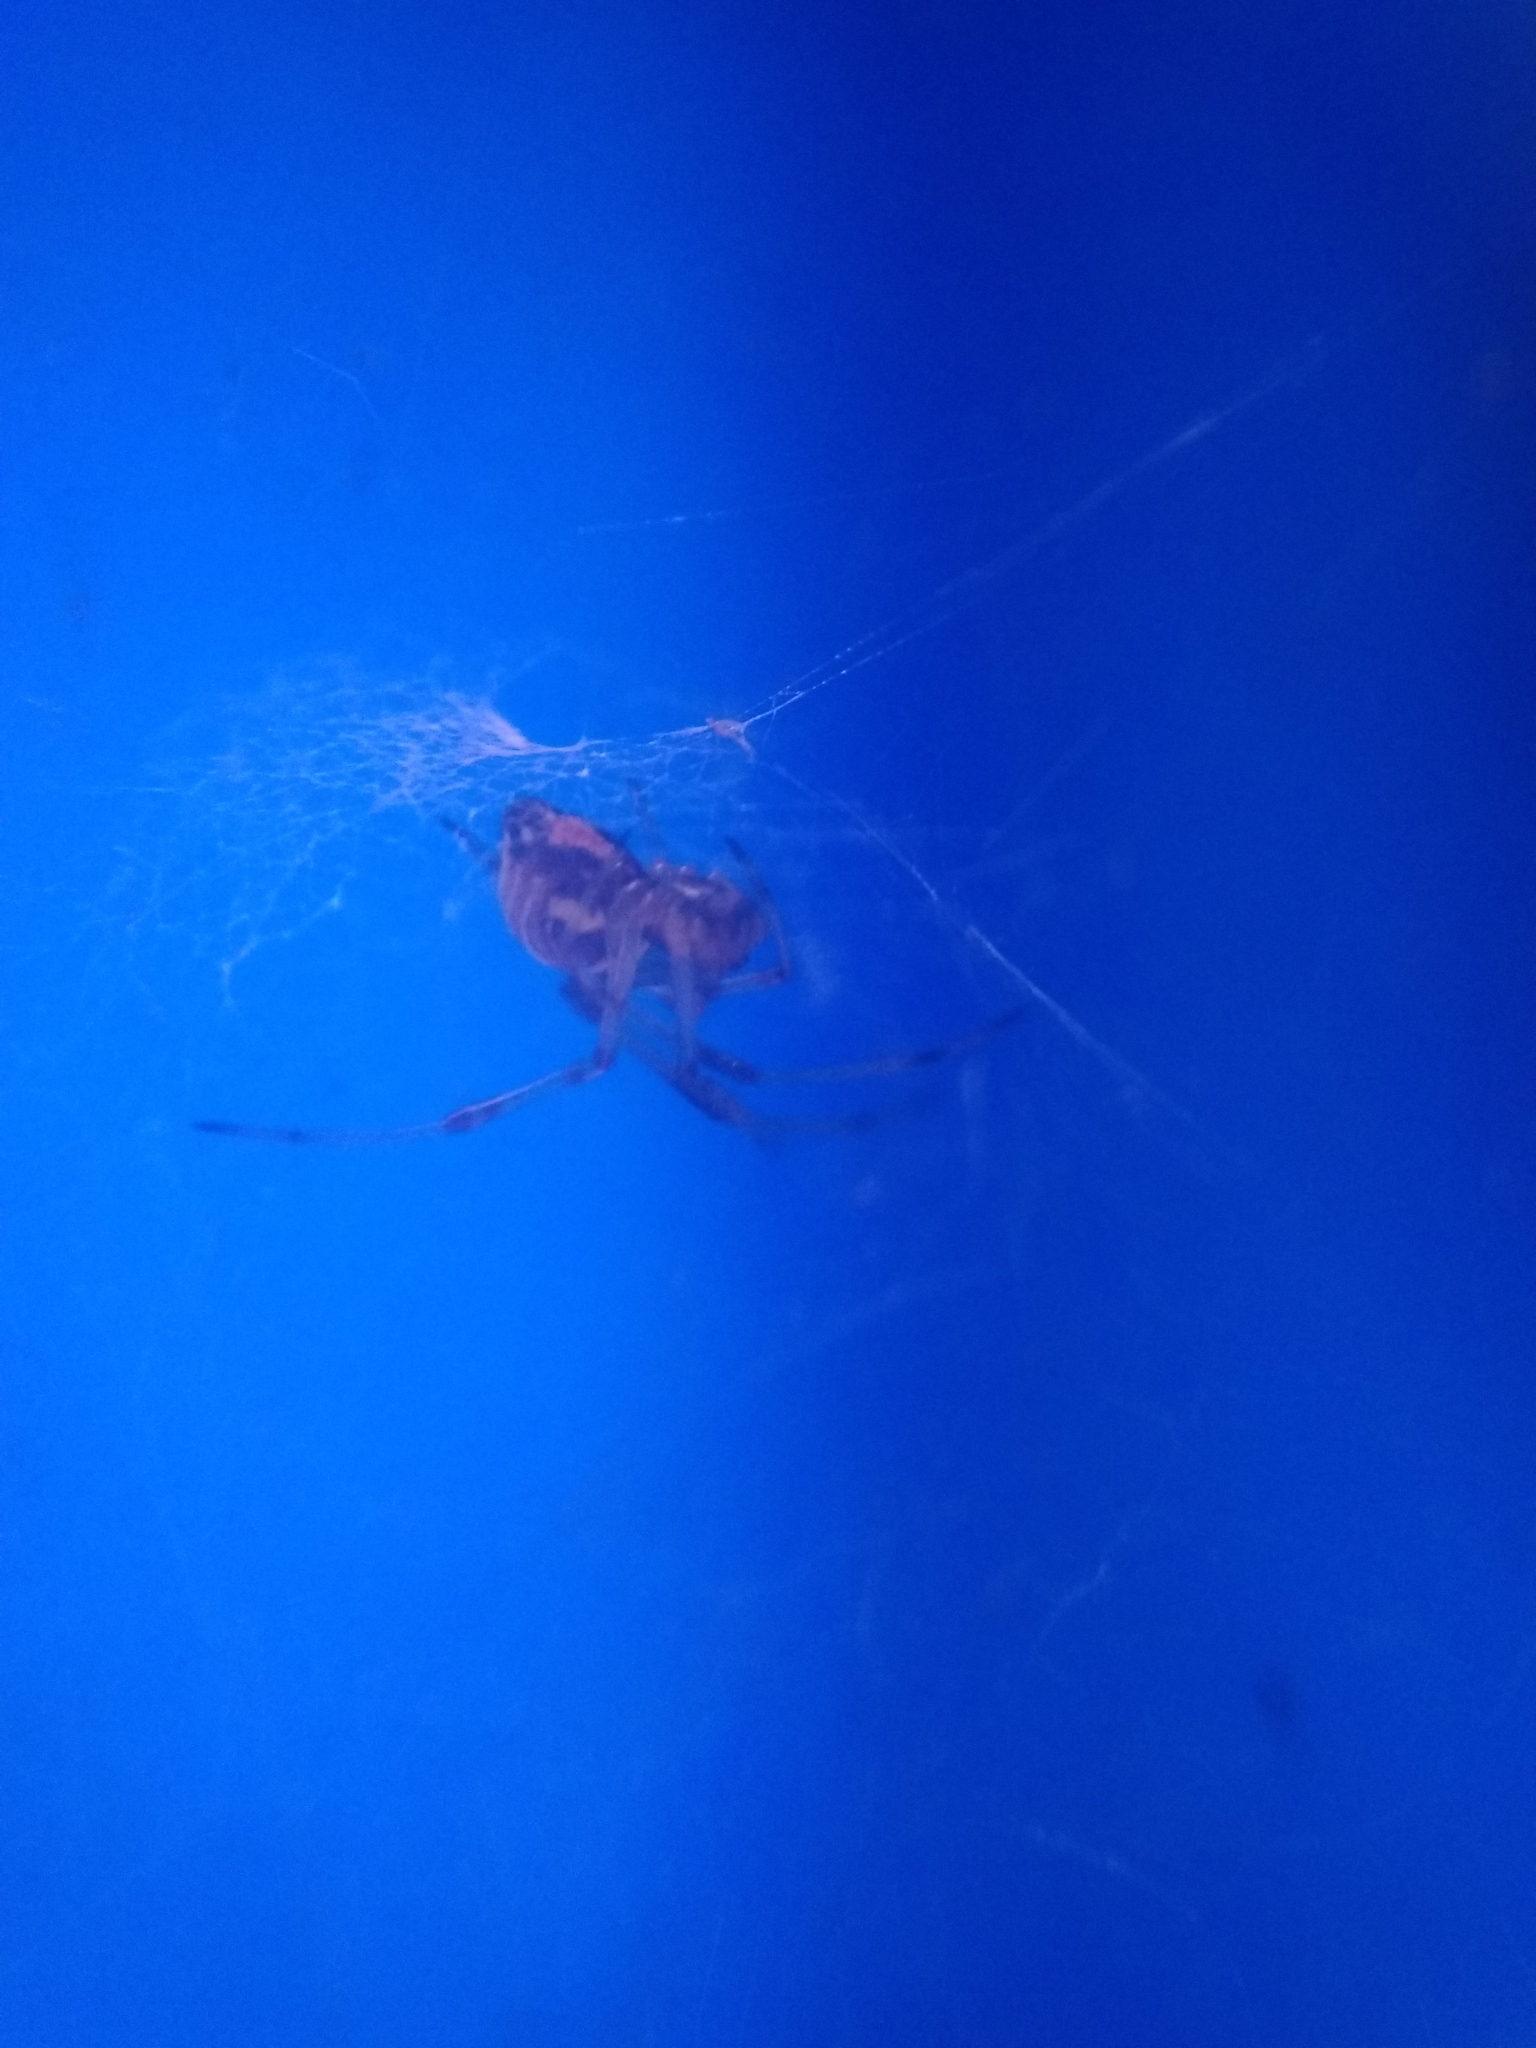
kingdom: Animalia
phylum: Arthropoda
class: Arachnida
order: Araneae
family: Theridiidae
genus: Latrodectus
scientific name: Latrodectus geometricus
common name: Brown widow spider
